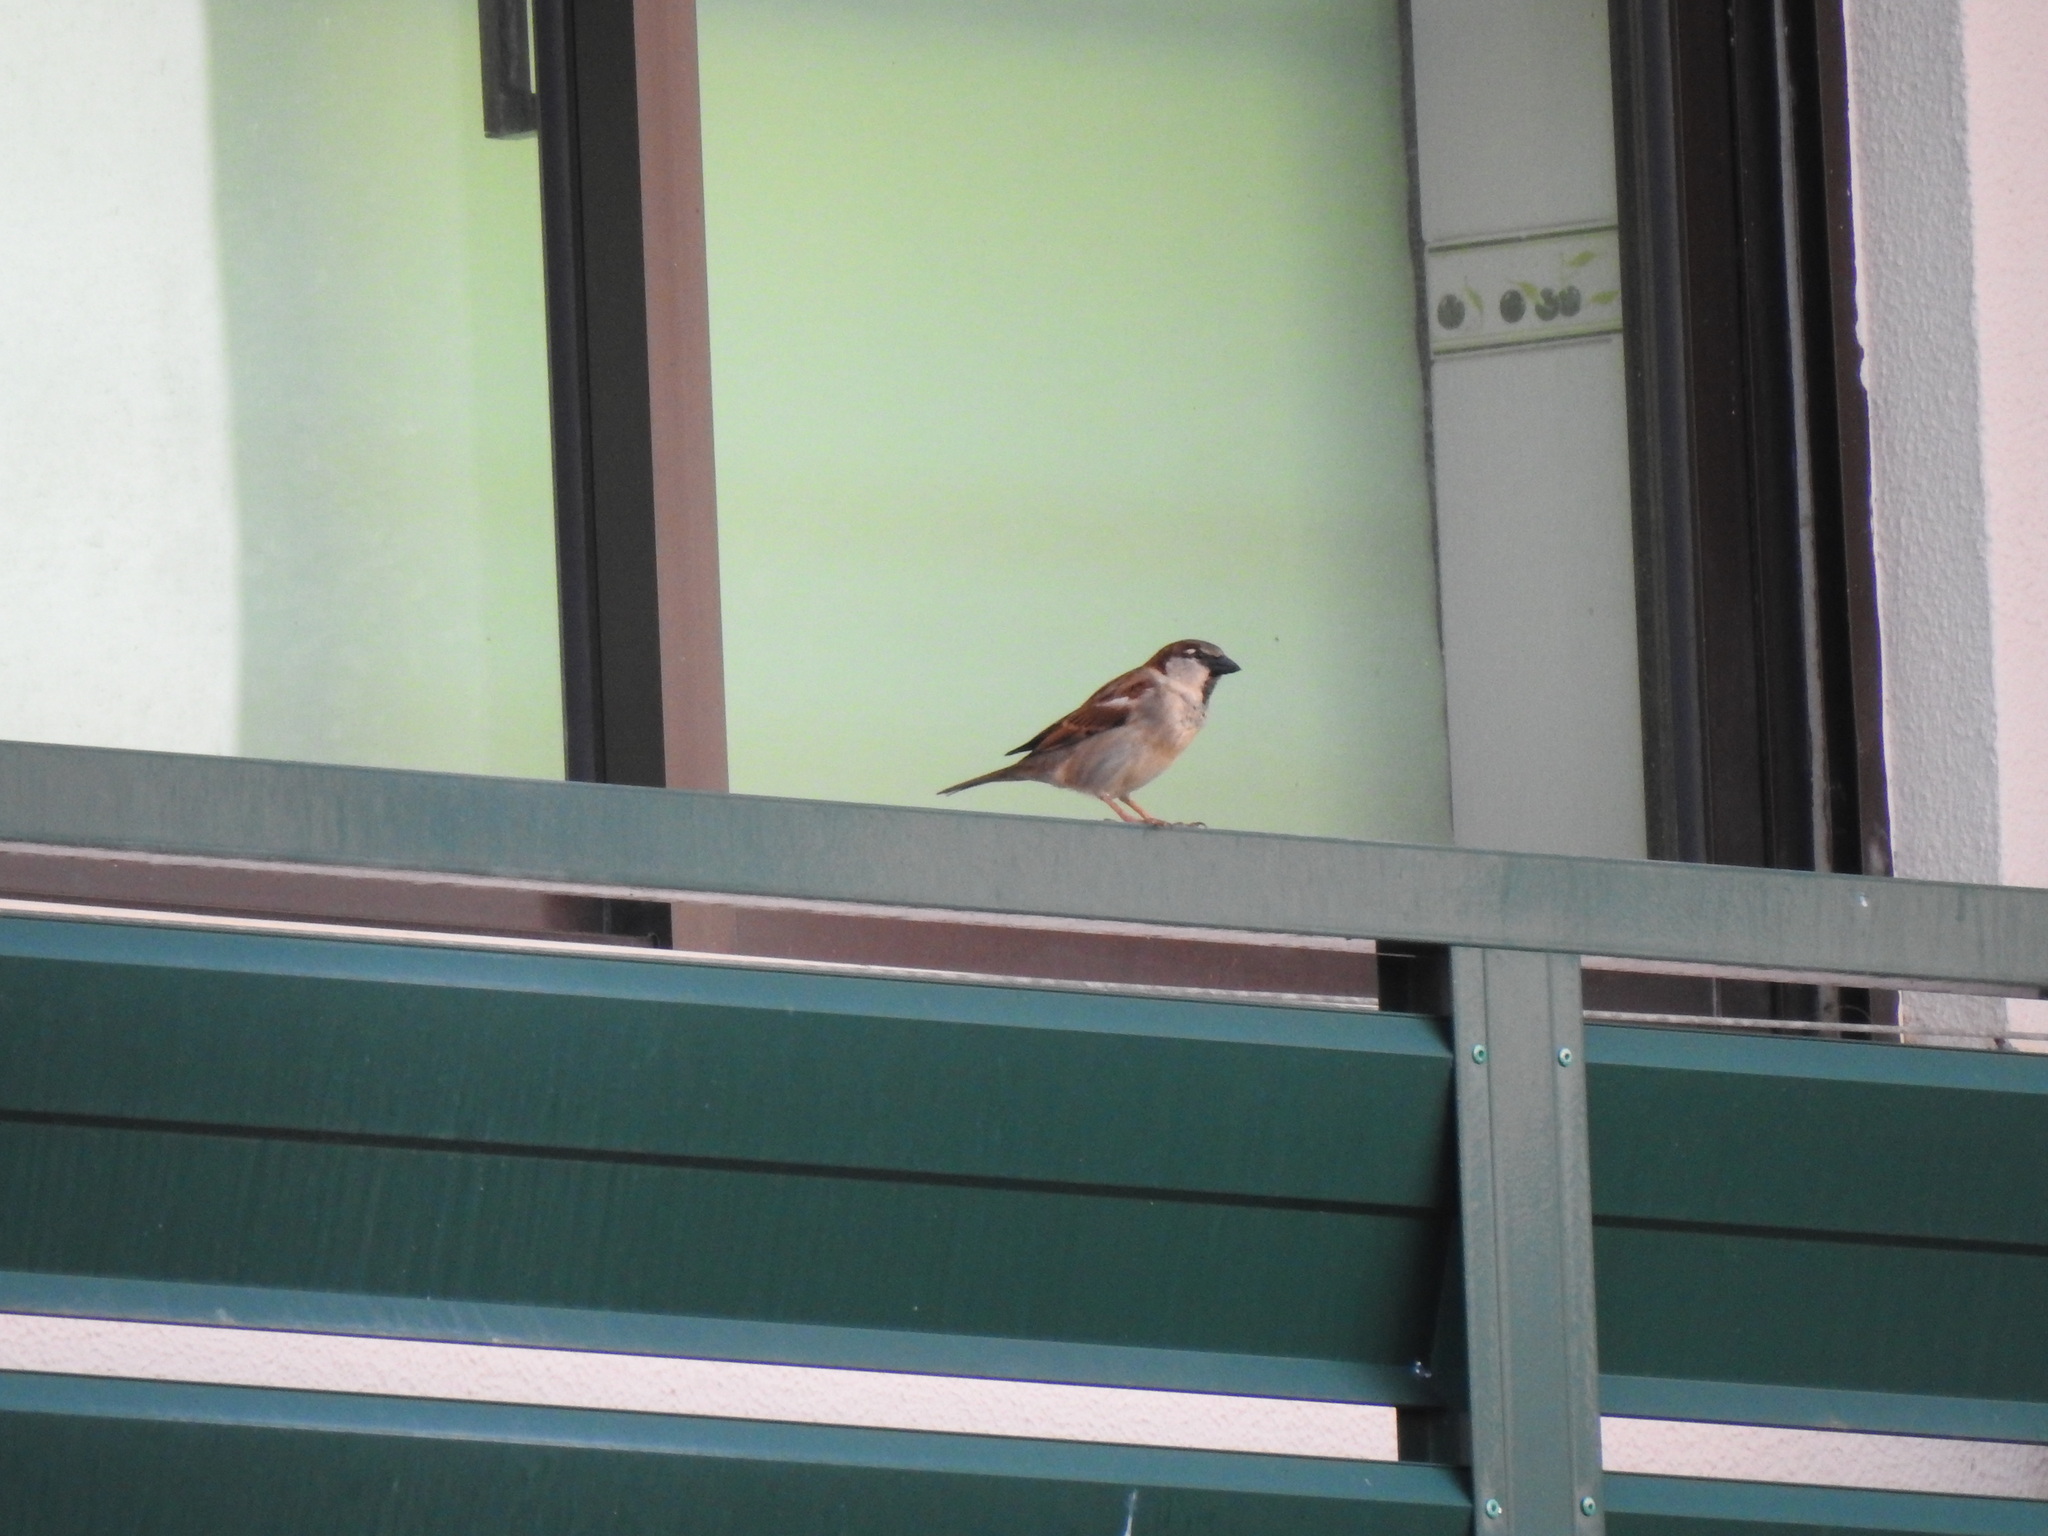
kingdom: Animalia
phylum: Chordata
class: Aves
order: Passeriformes
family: Passeridae
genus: Passer
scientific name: Passer domesticus
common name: House sparrow
